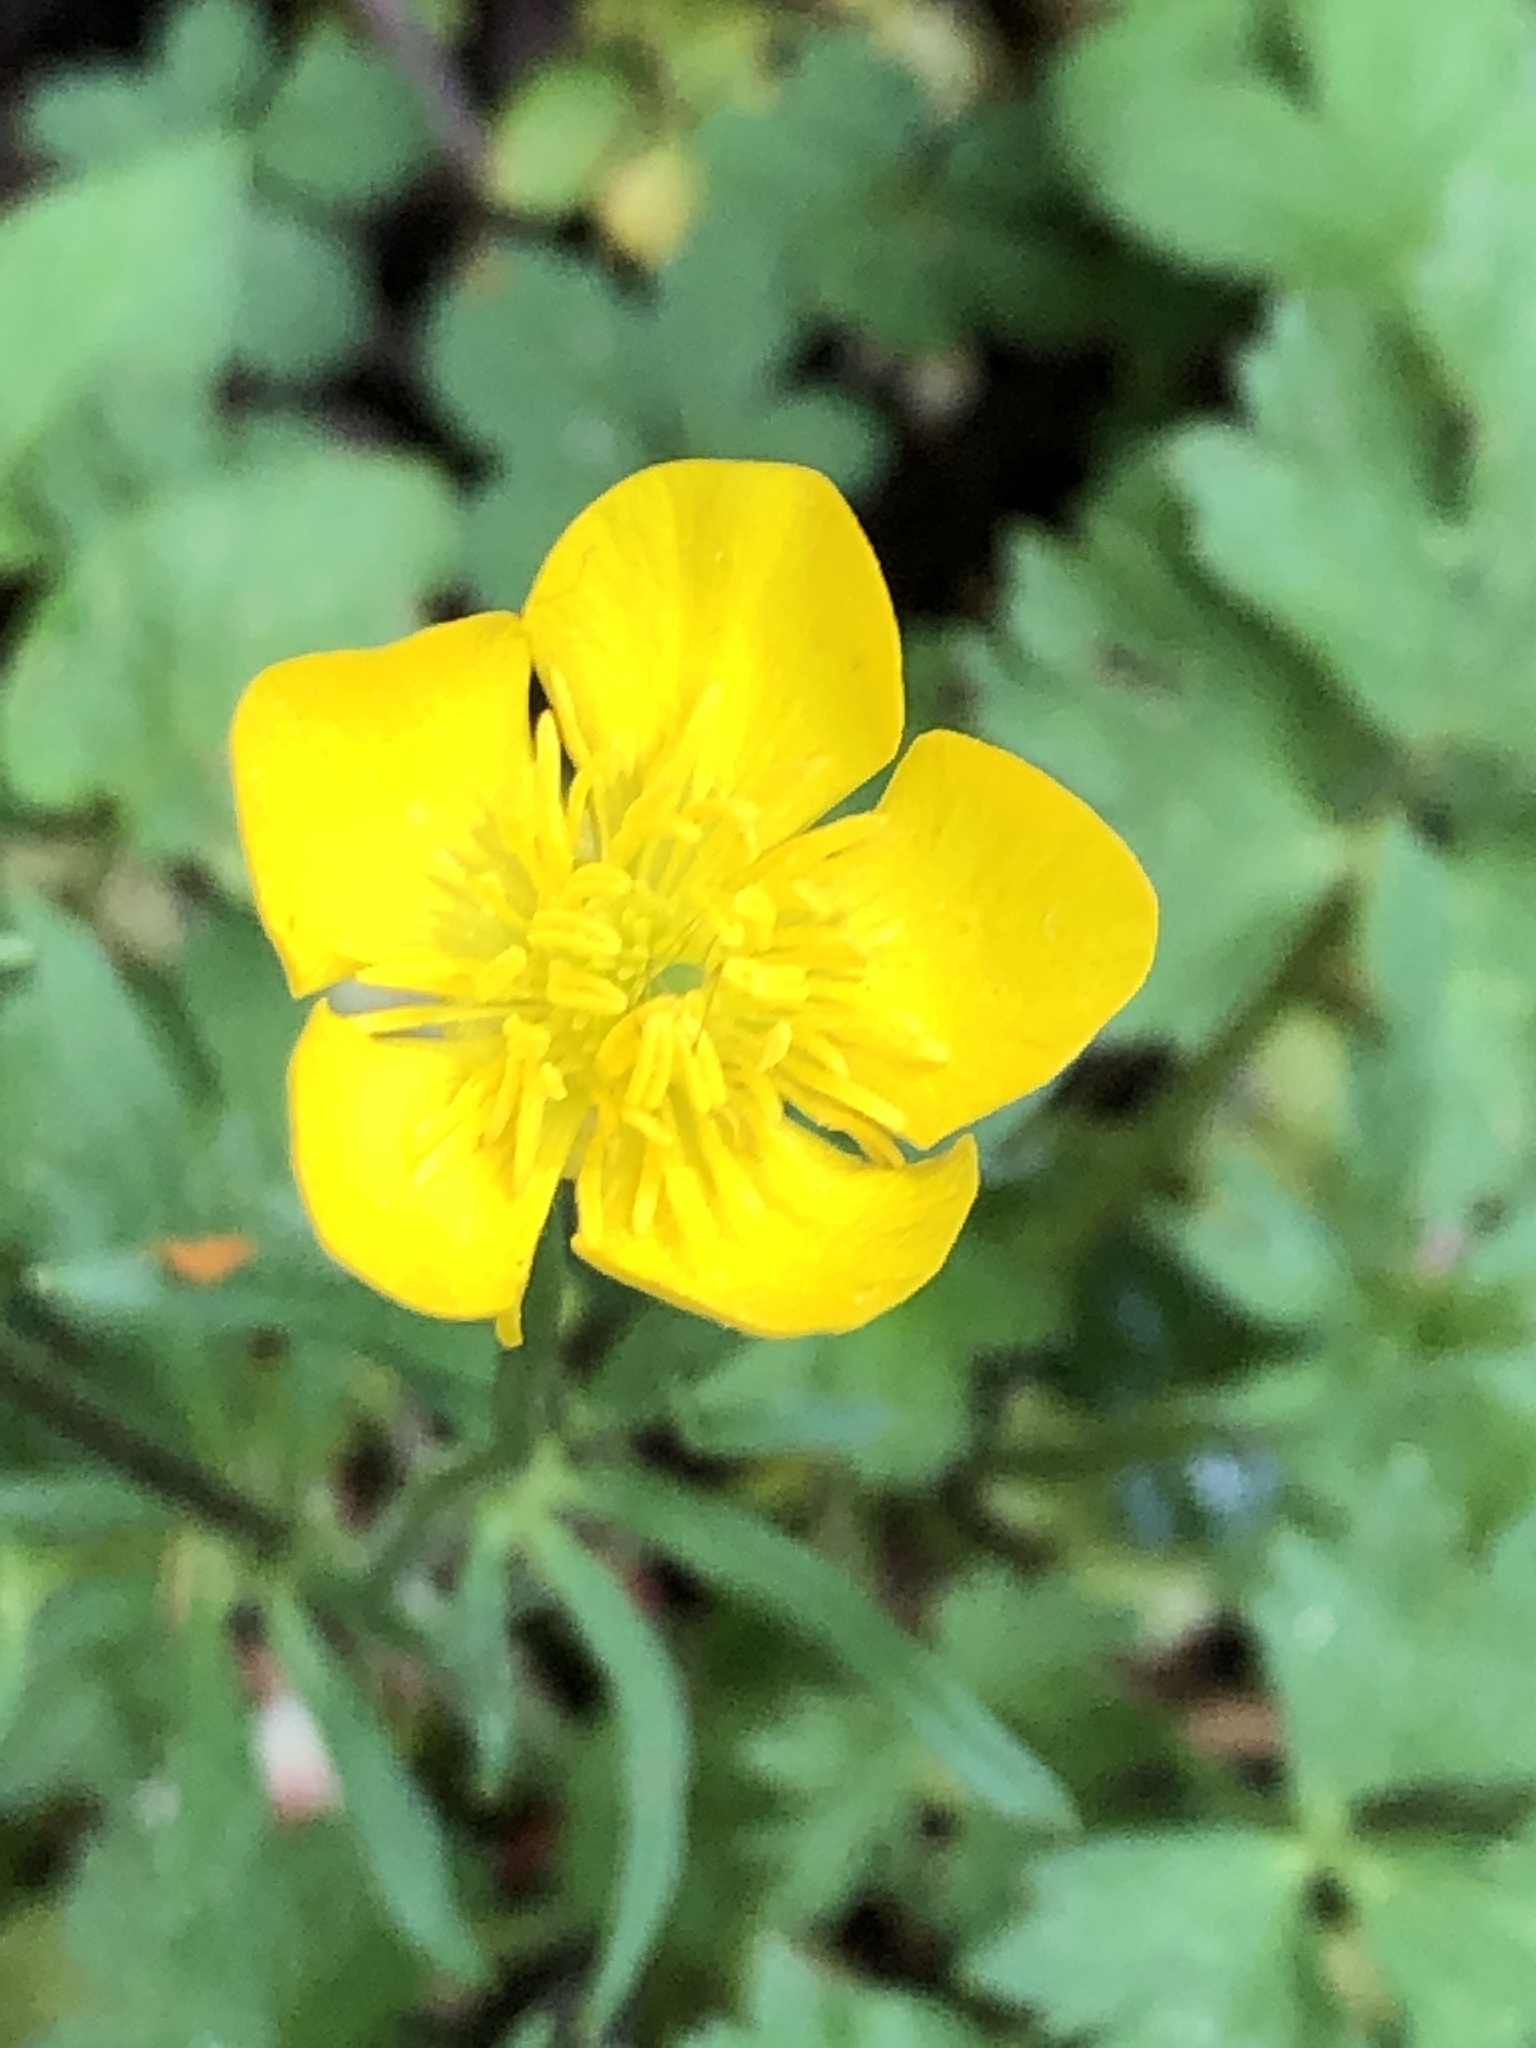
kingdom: Plantae
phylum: Tracheophyta
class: Magnoliopsida
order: Ranunculales
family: Ranunculaceae
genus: Ranunculus
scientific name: Ranunculus bulbosus
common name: Bulbous buttercup
